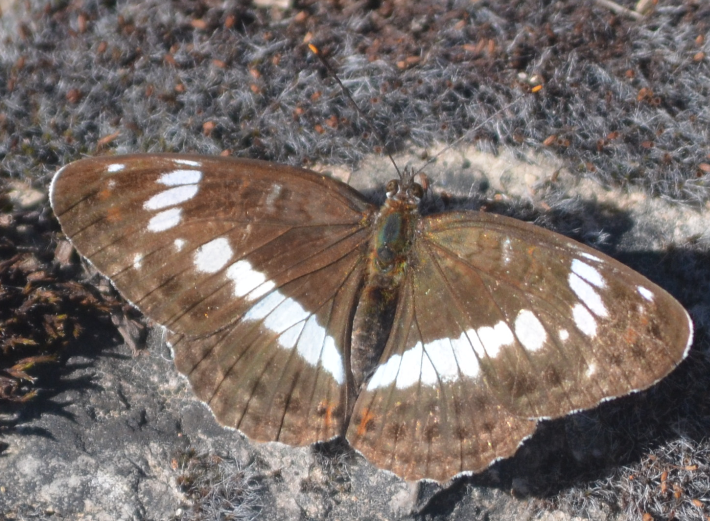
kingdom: Animalia
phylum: Arthropoda
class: Insecta
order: Lepidoptera
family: Nymphalidae
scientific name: Nymphalidae
